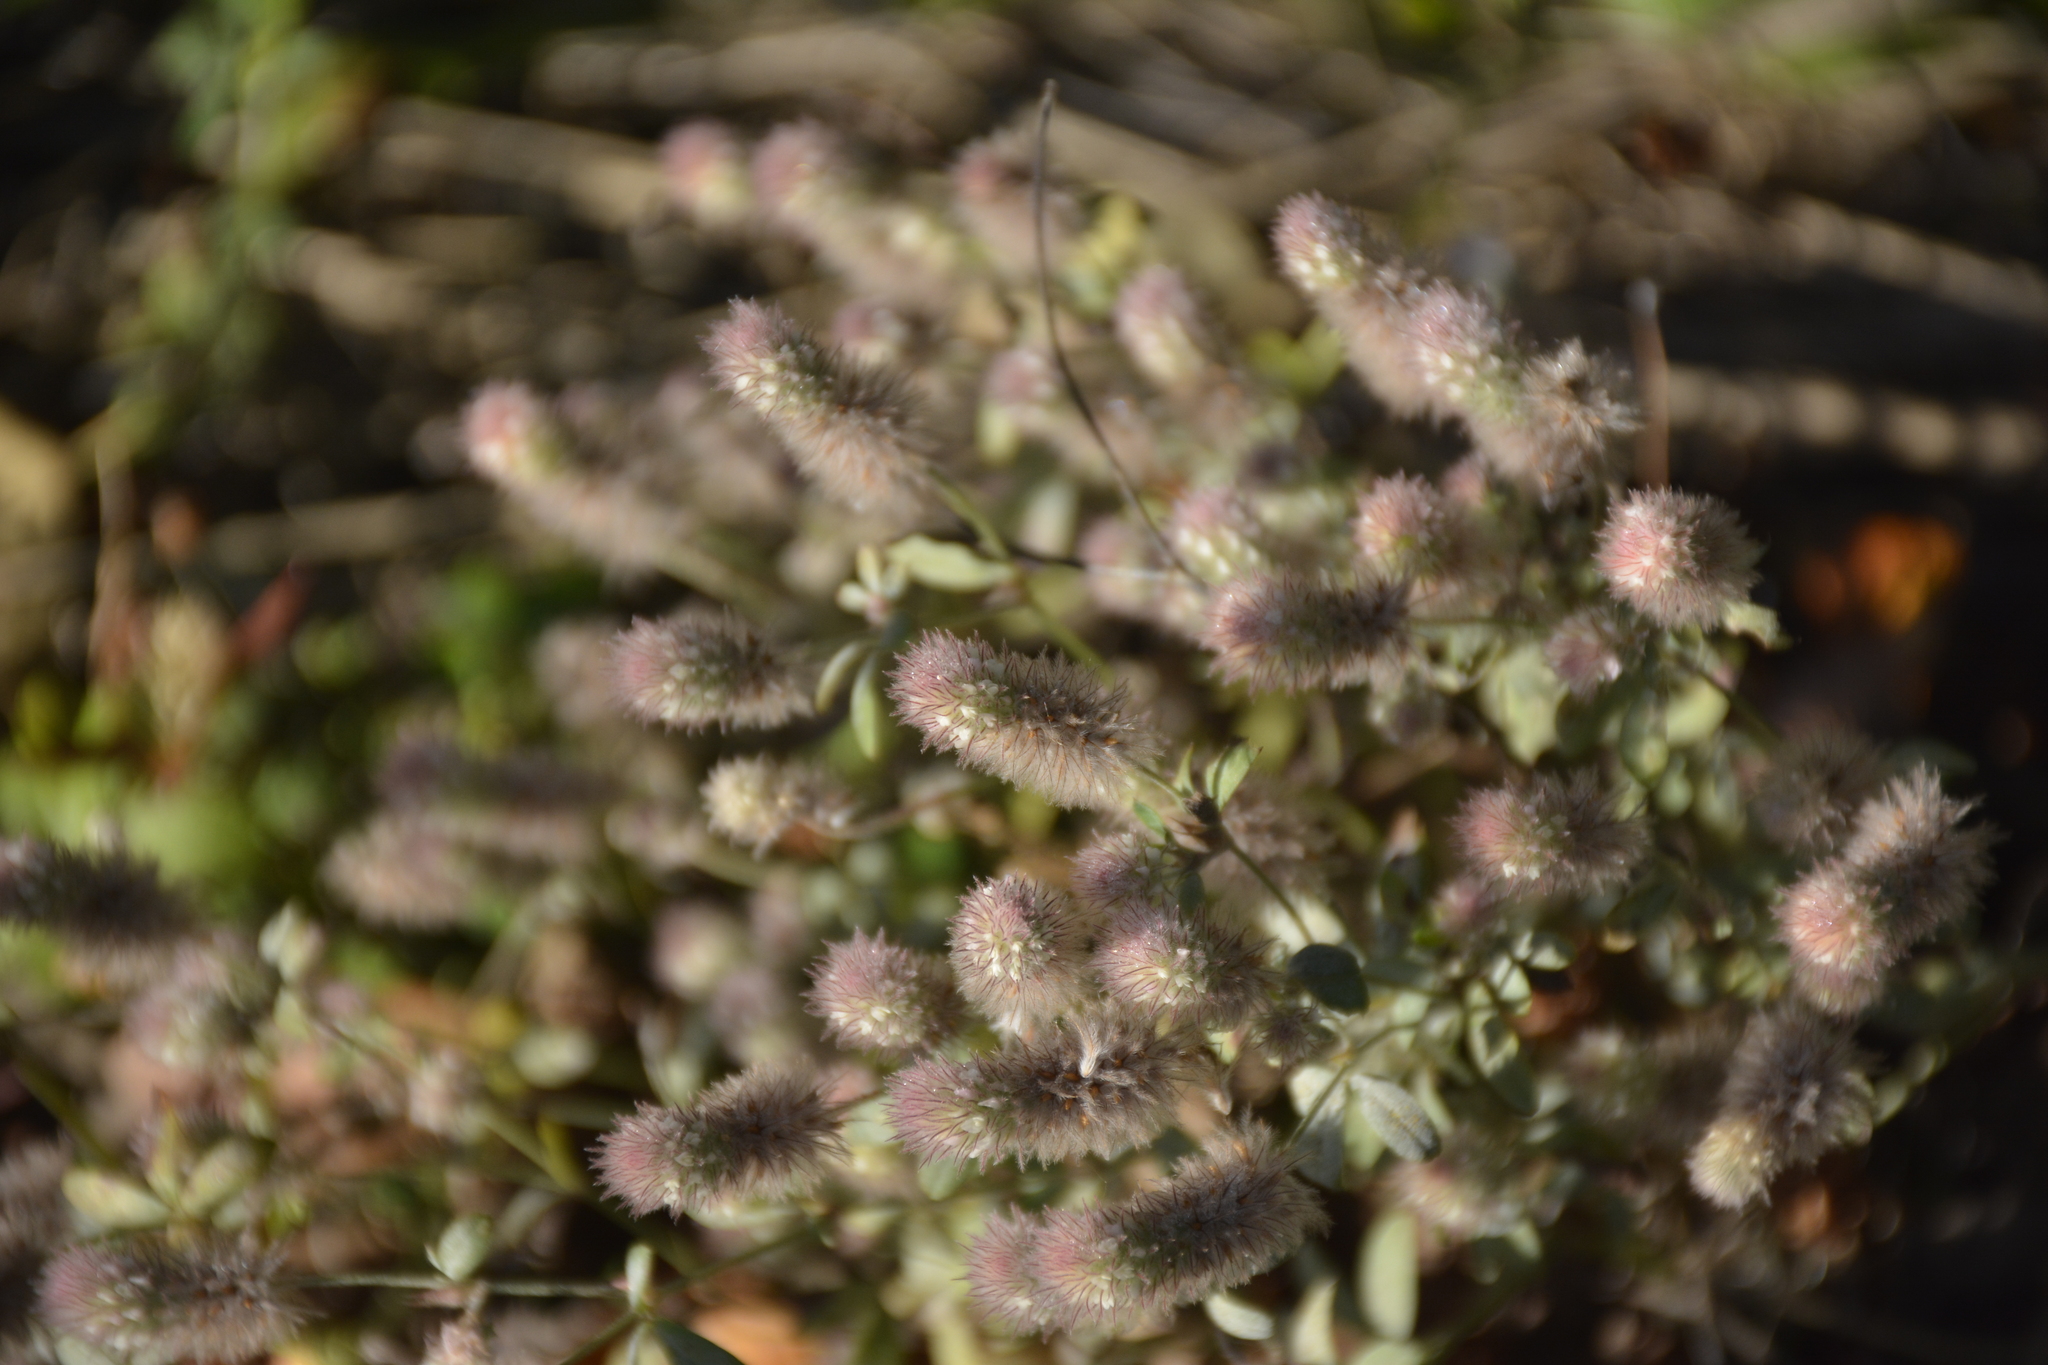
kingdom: Plantae
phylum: Tracheophyta
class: Magnoliopsida
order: Fabales
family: Fabaceae
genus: Trifolium
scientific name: Trifolium arvense
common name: Hare's-foot clover
